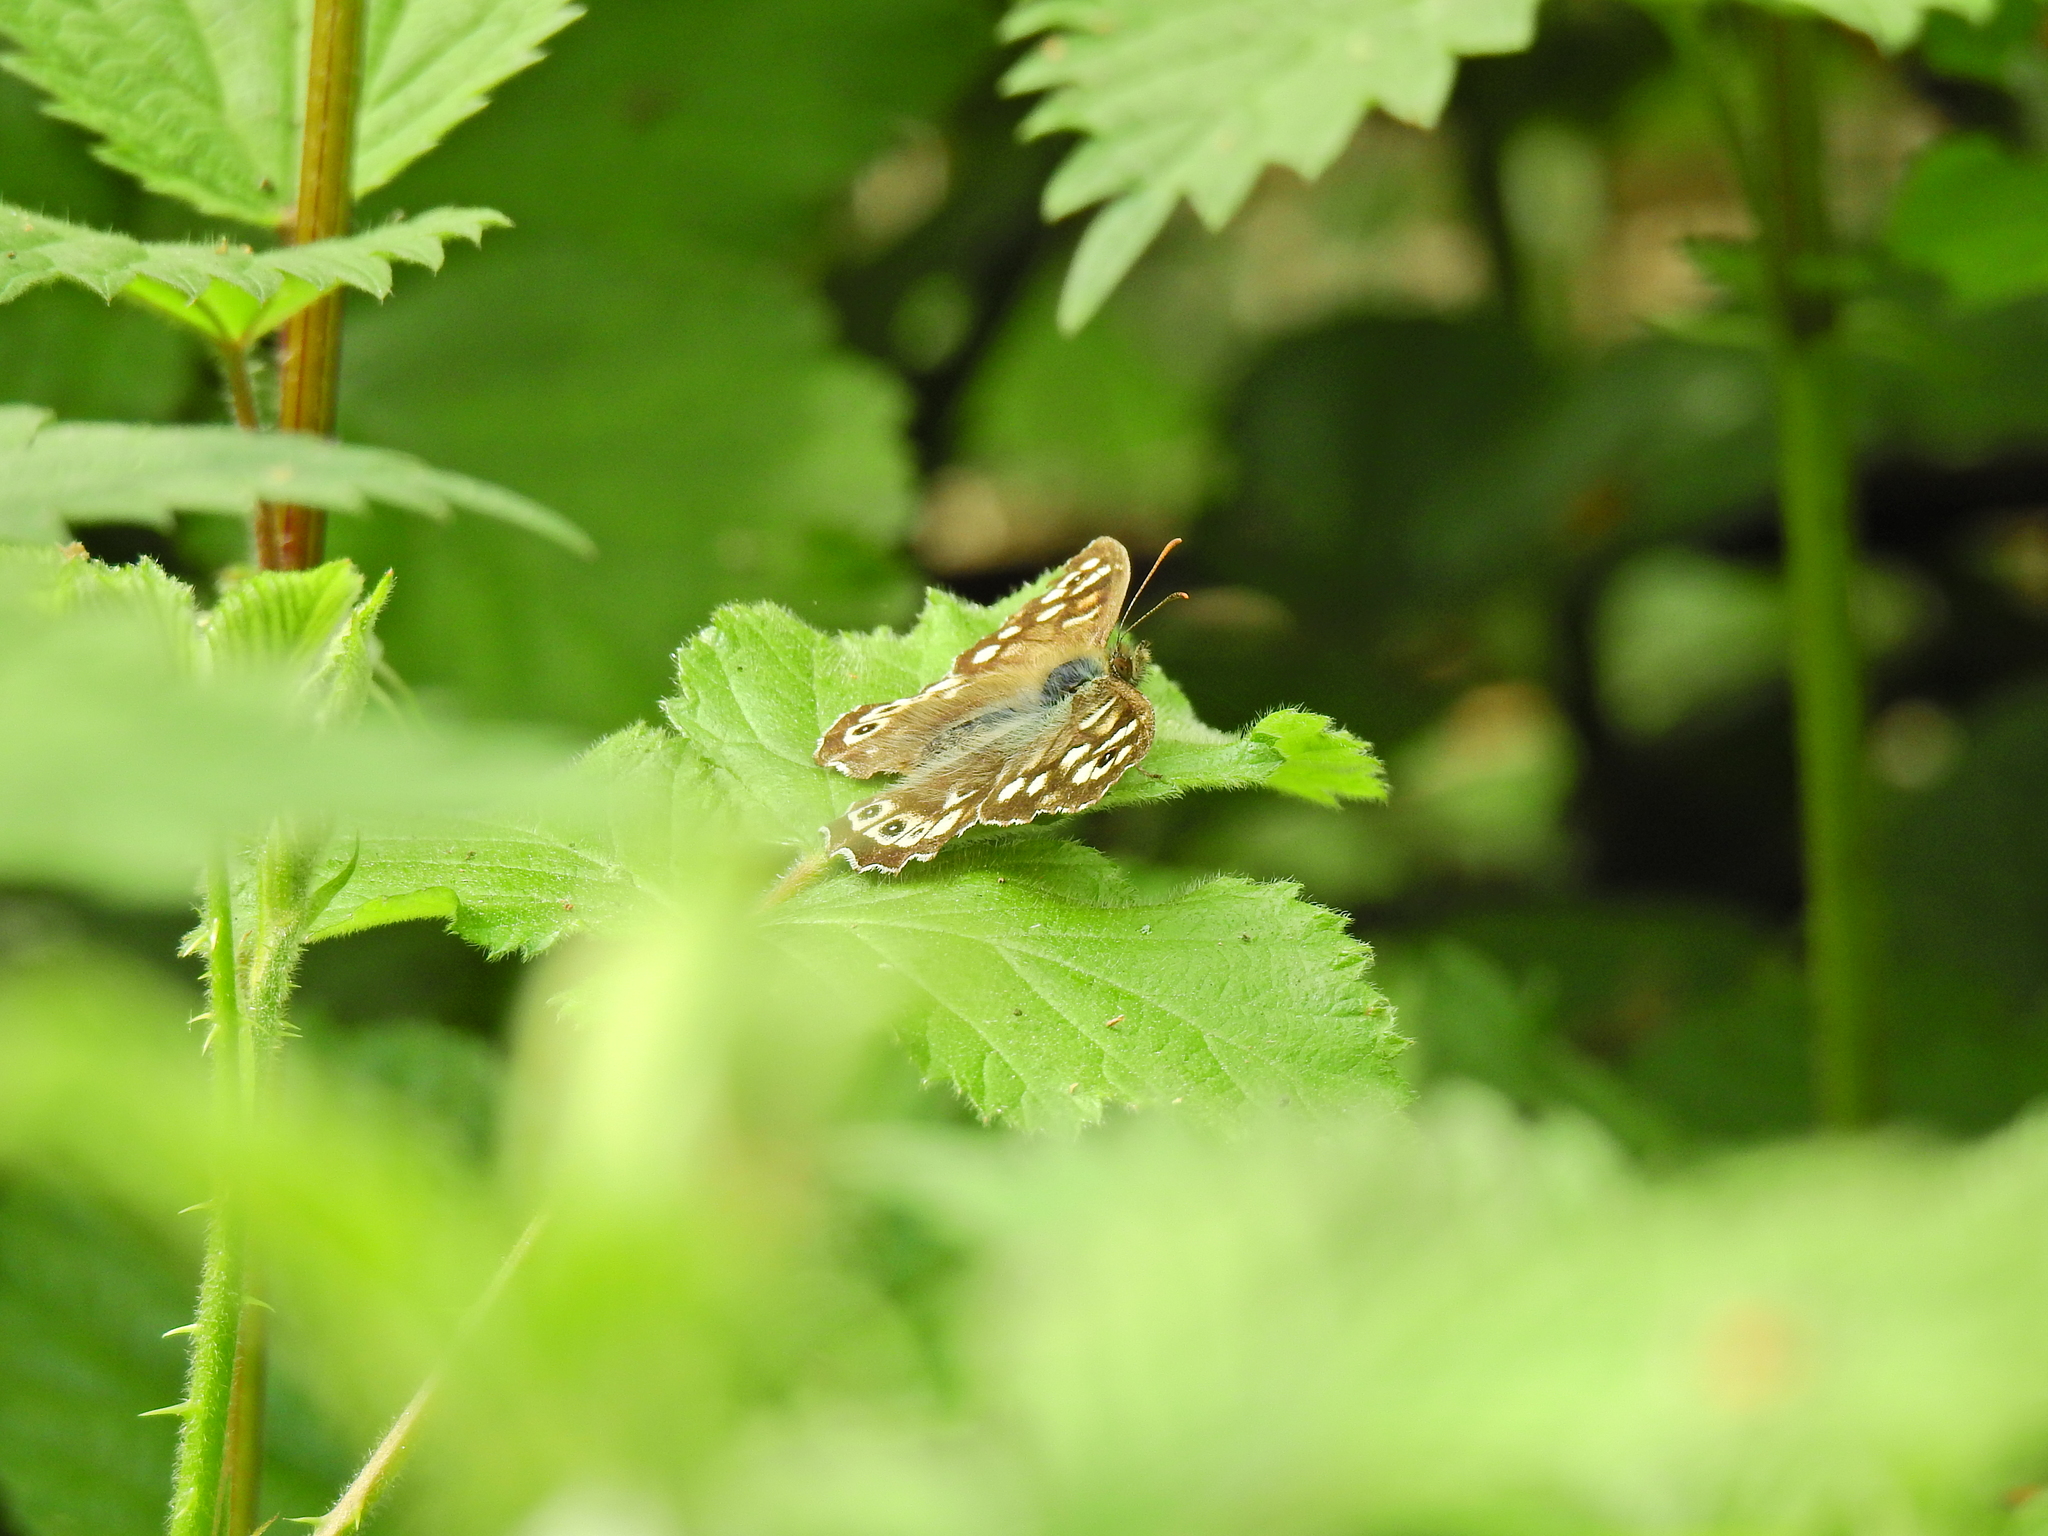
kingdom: Animalia
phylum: Arthropoda
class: Insecta
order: Lepidoptera
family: Nymphalidae
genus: Pararge
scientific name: Pararge aegeria
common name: Speckled wood
